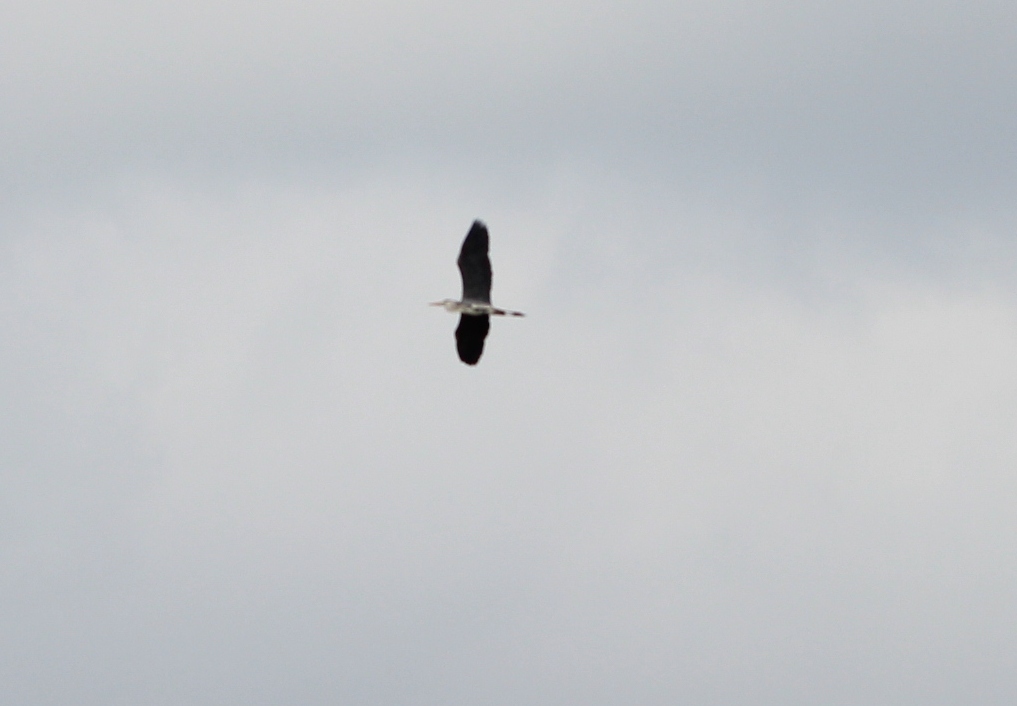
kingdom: Animalia
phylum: Chordata
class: Aves
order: Pelecaniformes
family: Ardeidae
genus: Ardea
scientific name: Ardea cinerea
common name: Grey heron
